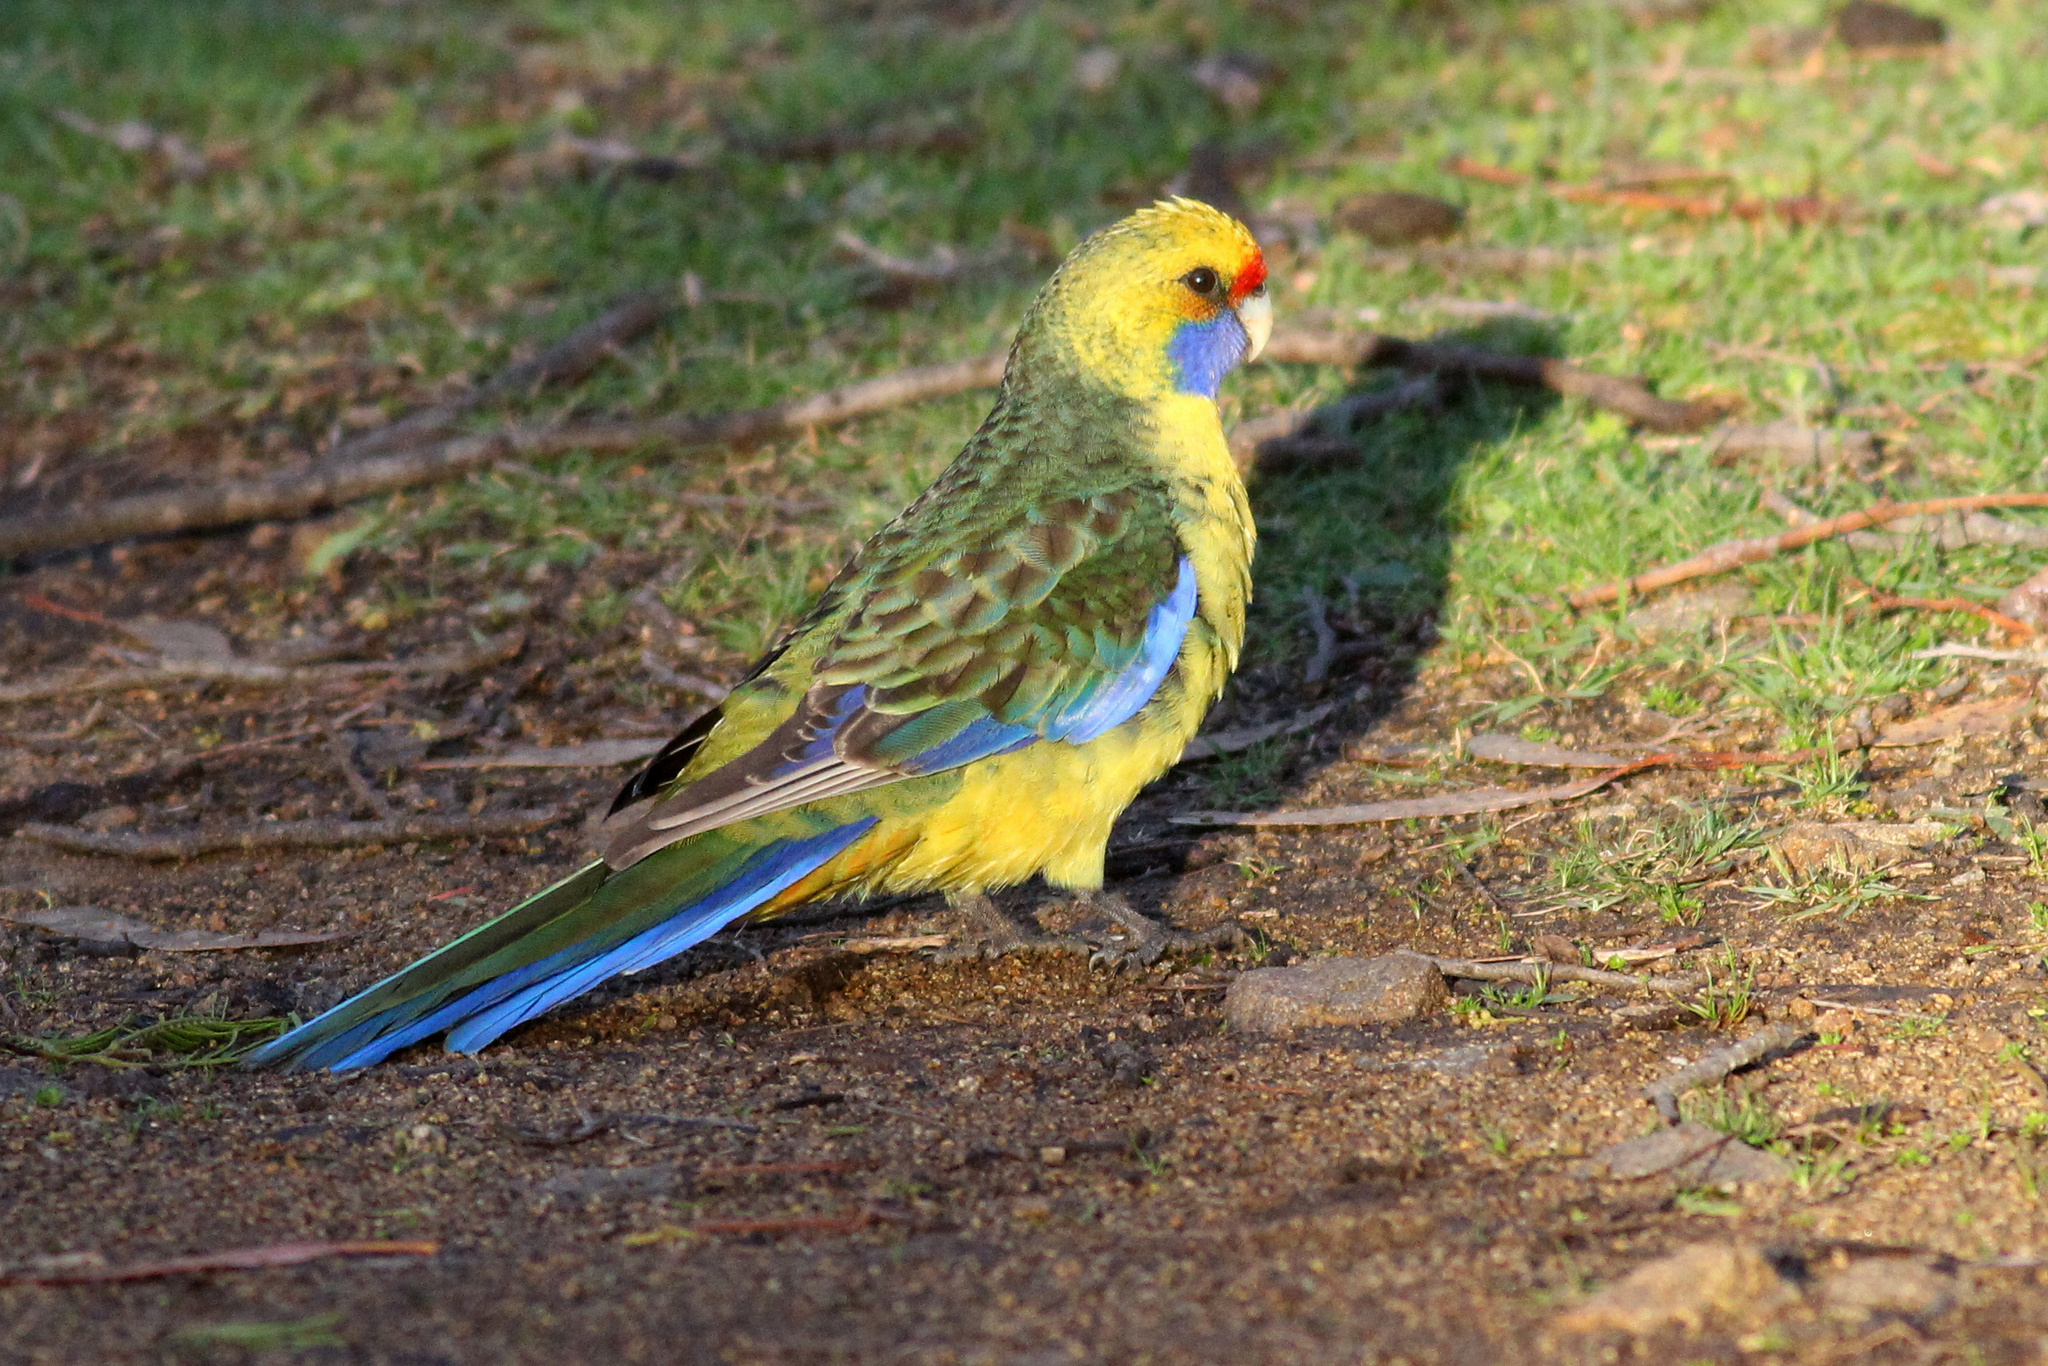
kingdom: Animalia
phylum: Chordata
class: Aves
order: Psittaciformes
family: Psittacidae
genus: Platycercus
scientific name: Platycercus caledonicus
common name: Green rosella
